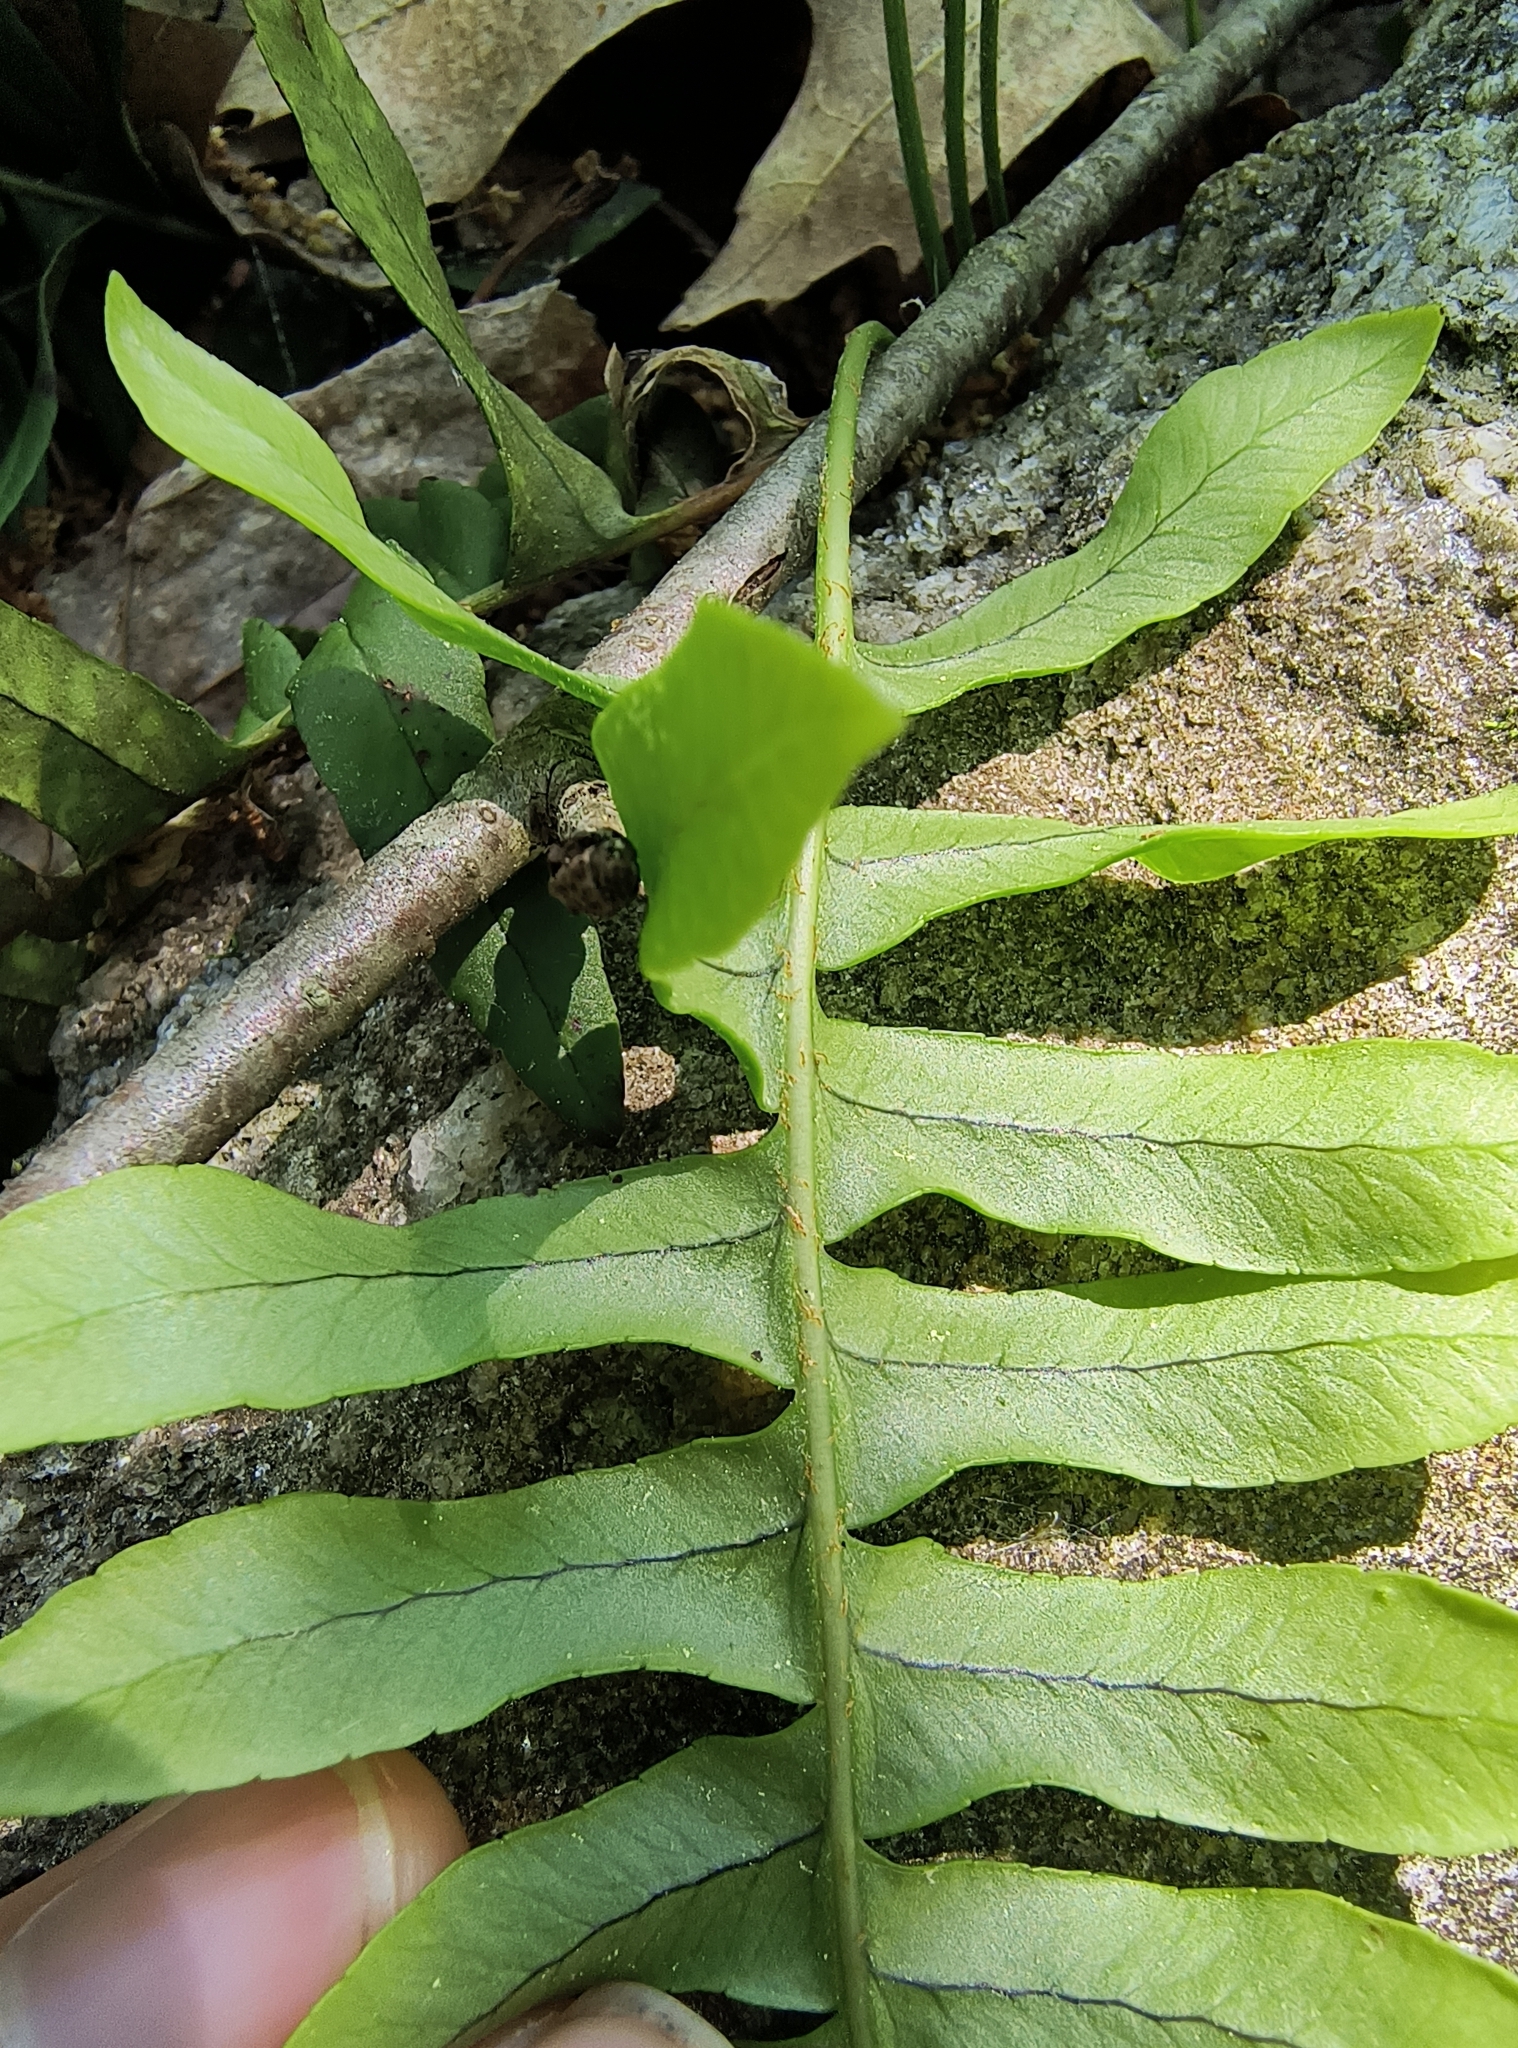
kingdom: Plantae
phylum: Tracheophyta
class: Polypodiopsida
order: Polypodiales
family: Polypodiaceae
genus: Polypodium
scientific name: Polypodium virginianum
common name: American wall fern
